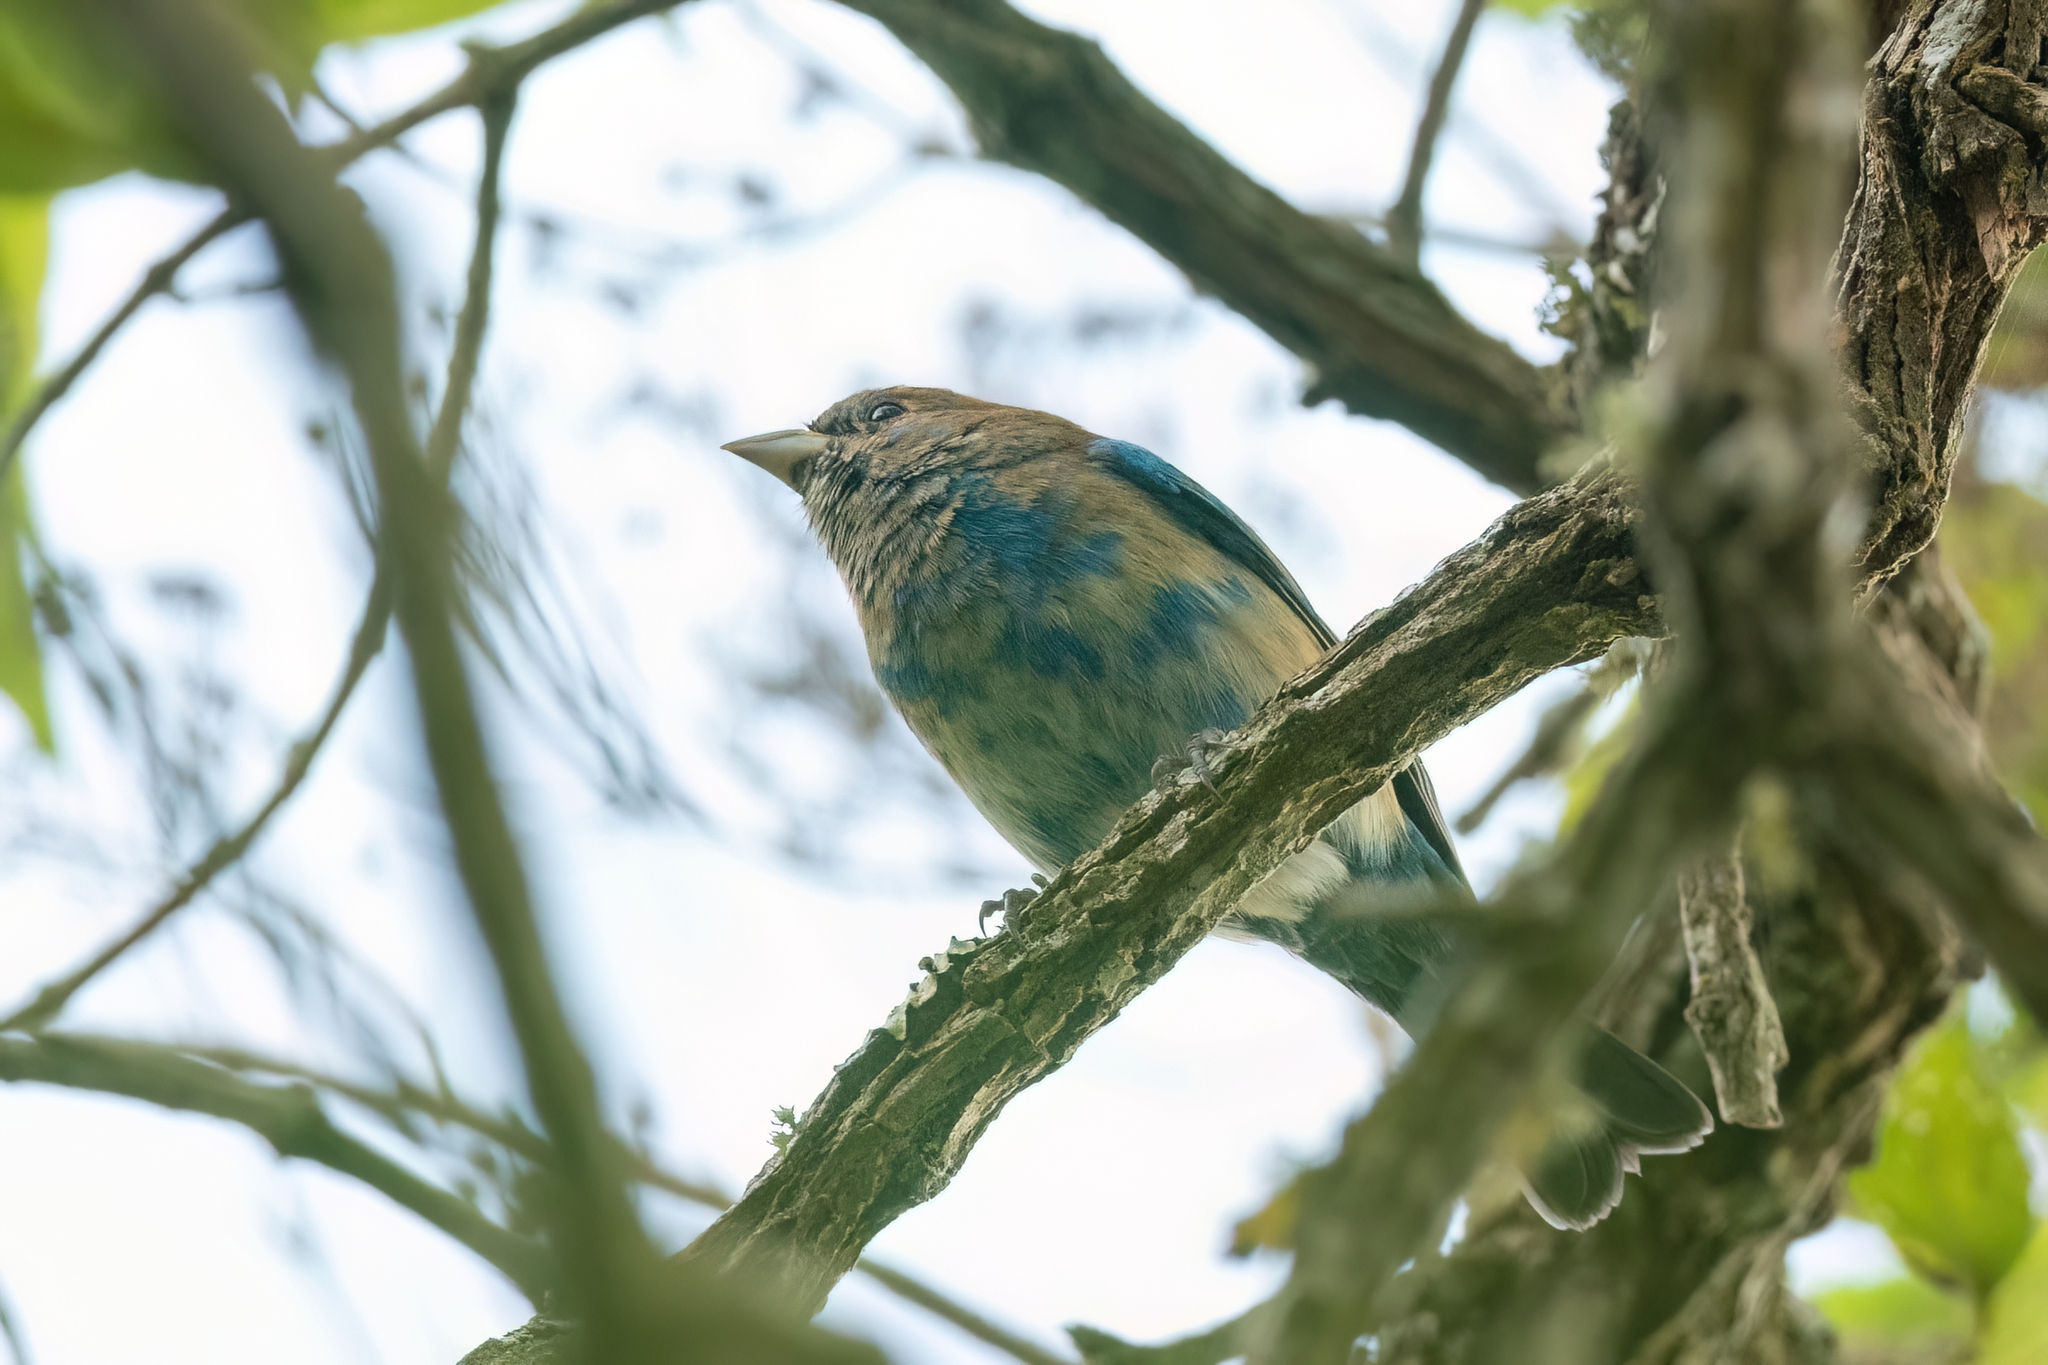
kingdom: Animalia
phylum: Chordata
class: Aves
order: Passeriformes
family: Cardinalidae
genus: Passerina
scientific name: Passerina cyanea
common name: Indigo bunting
